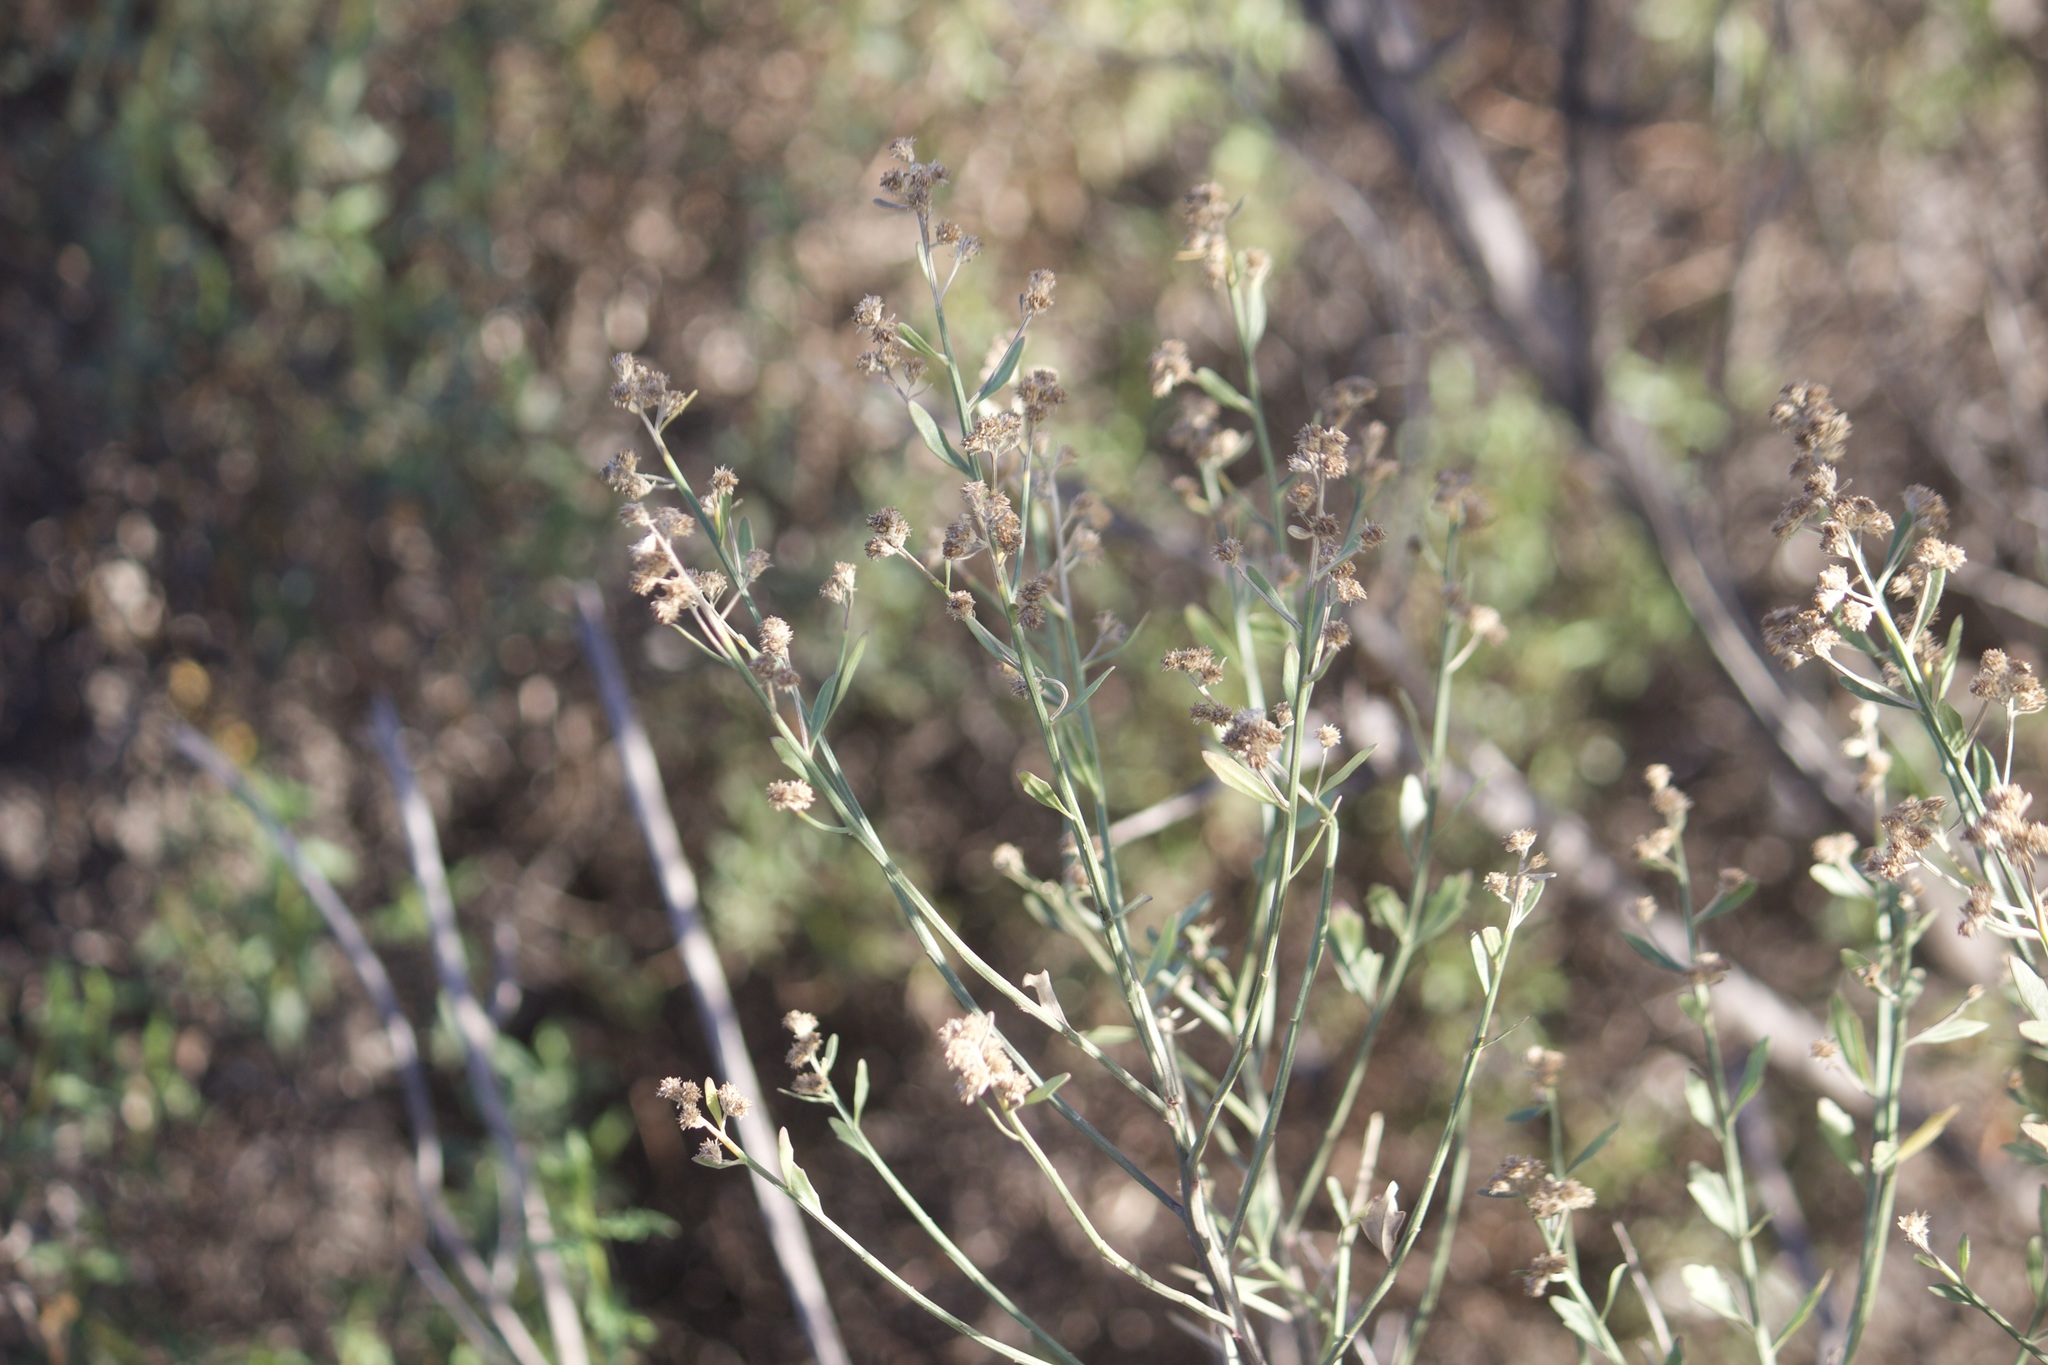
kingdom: Plantae
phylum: Tracheophyta
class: Magnoliopsida
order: Asterales
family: Asteraceae
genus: Baccharis
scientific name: Baccharis salicina
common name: Willow baccharis
